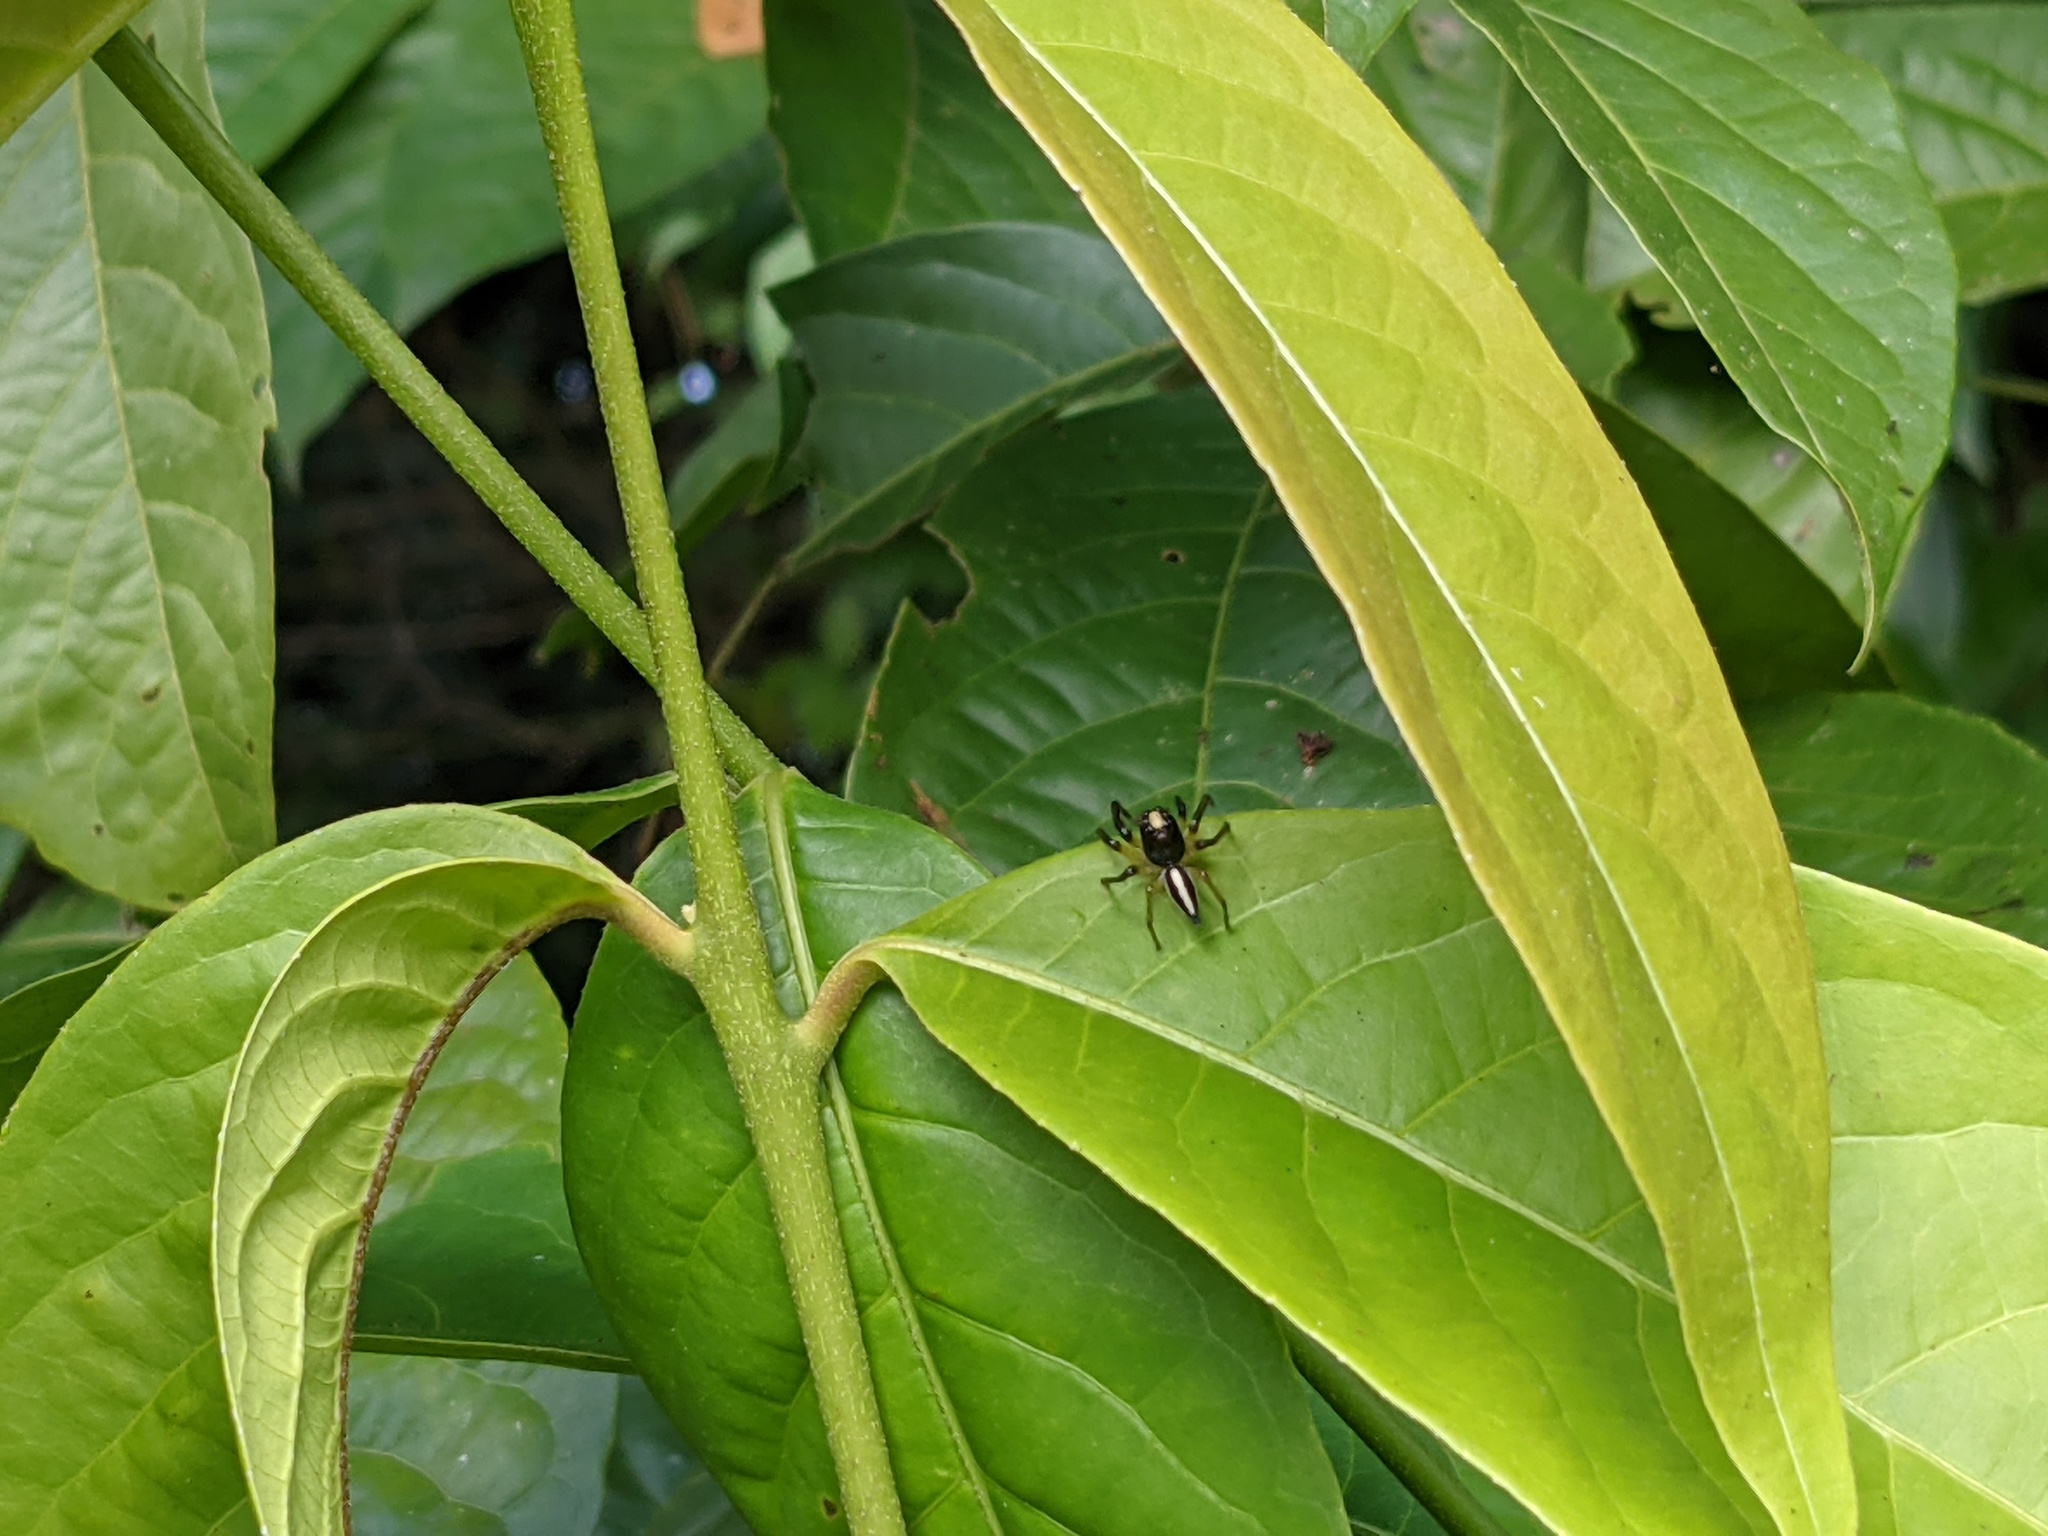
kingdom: Animalia
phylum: Arthropoda
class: Arachnida
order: Araneae
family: Salticidae
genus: Amycus
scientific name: Amycus flavicomis
